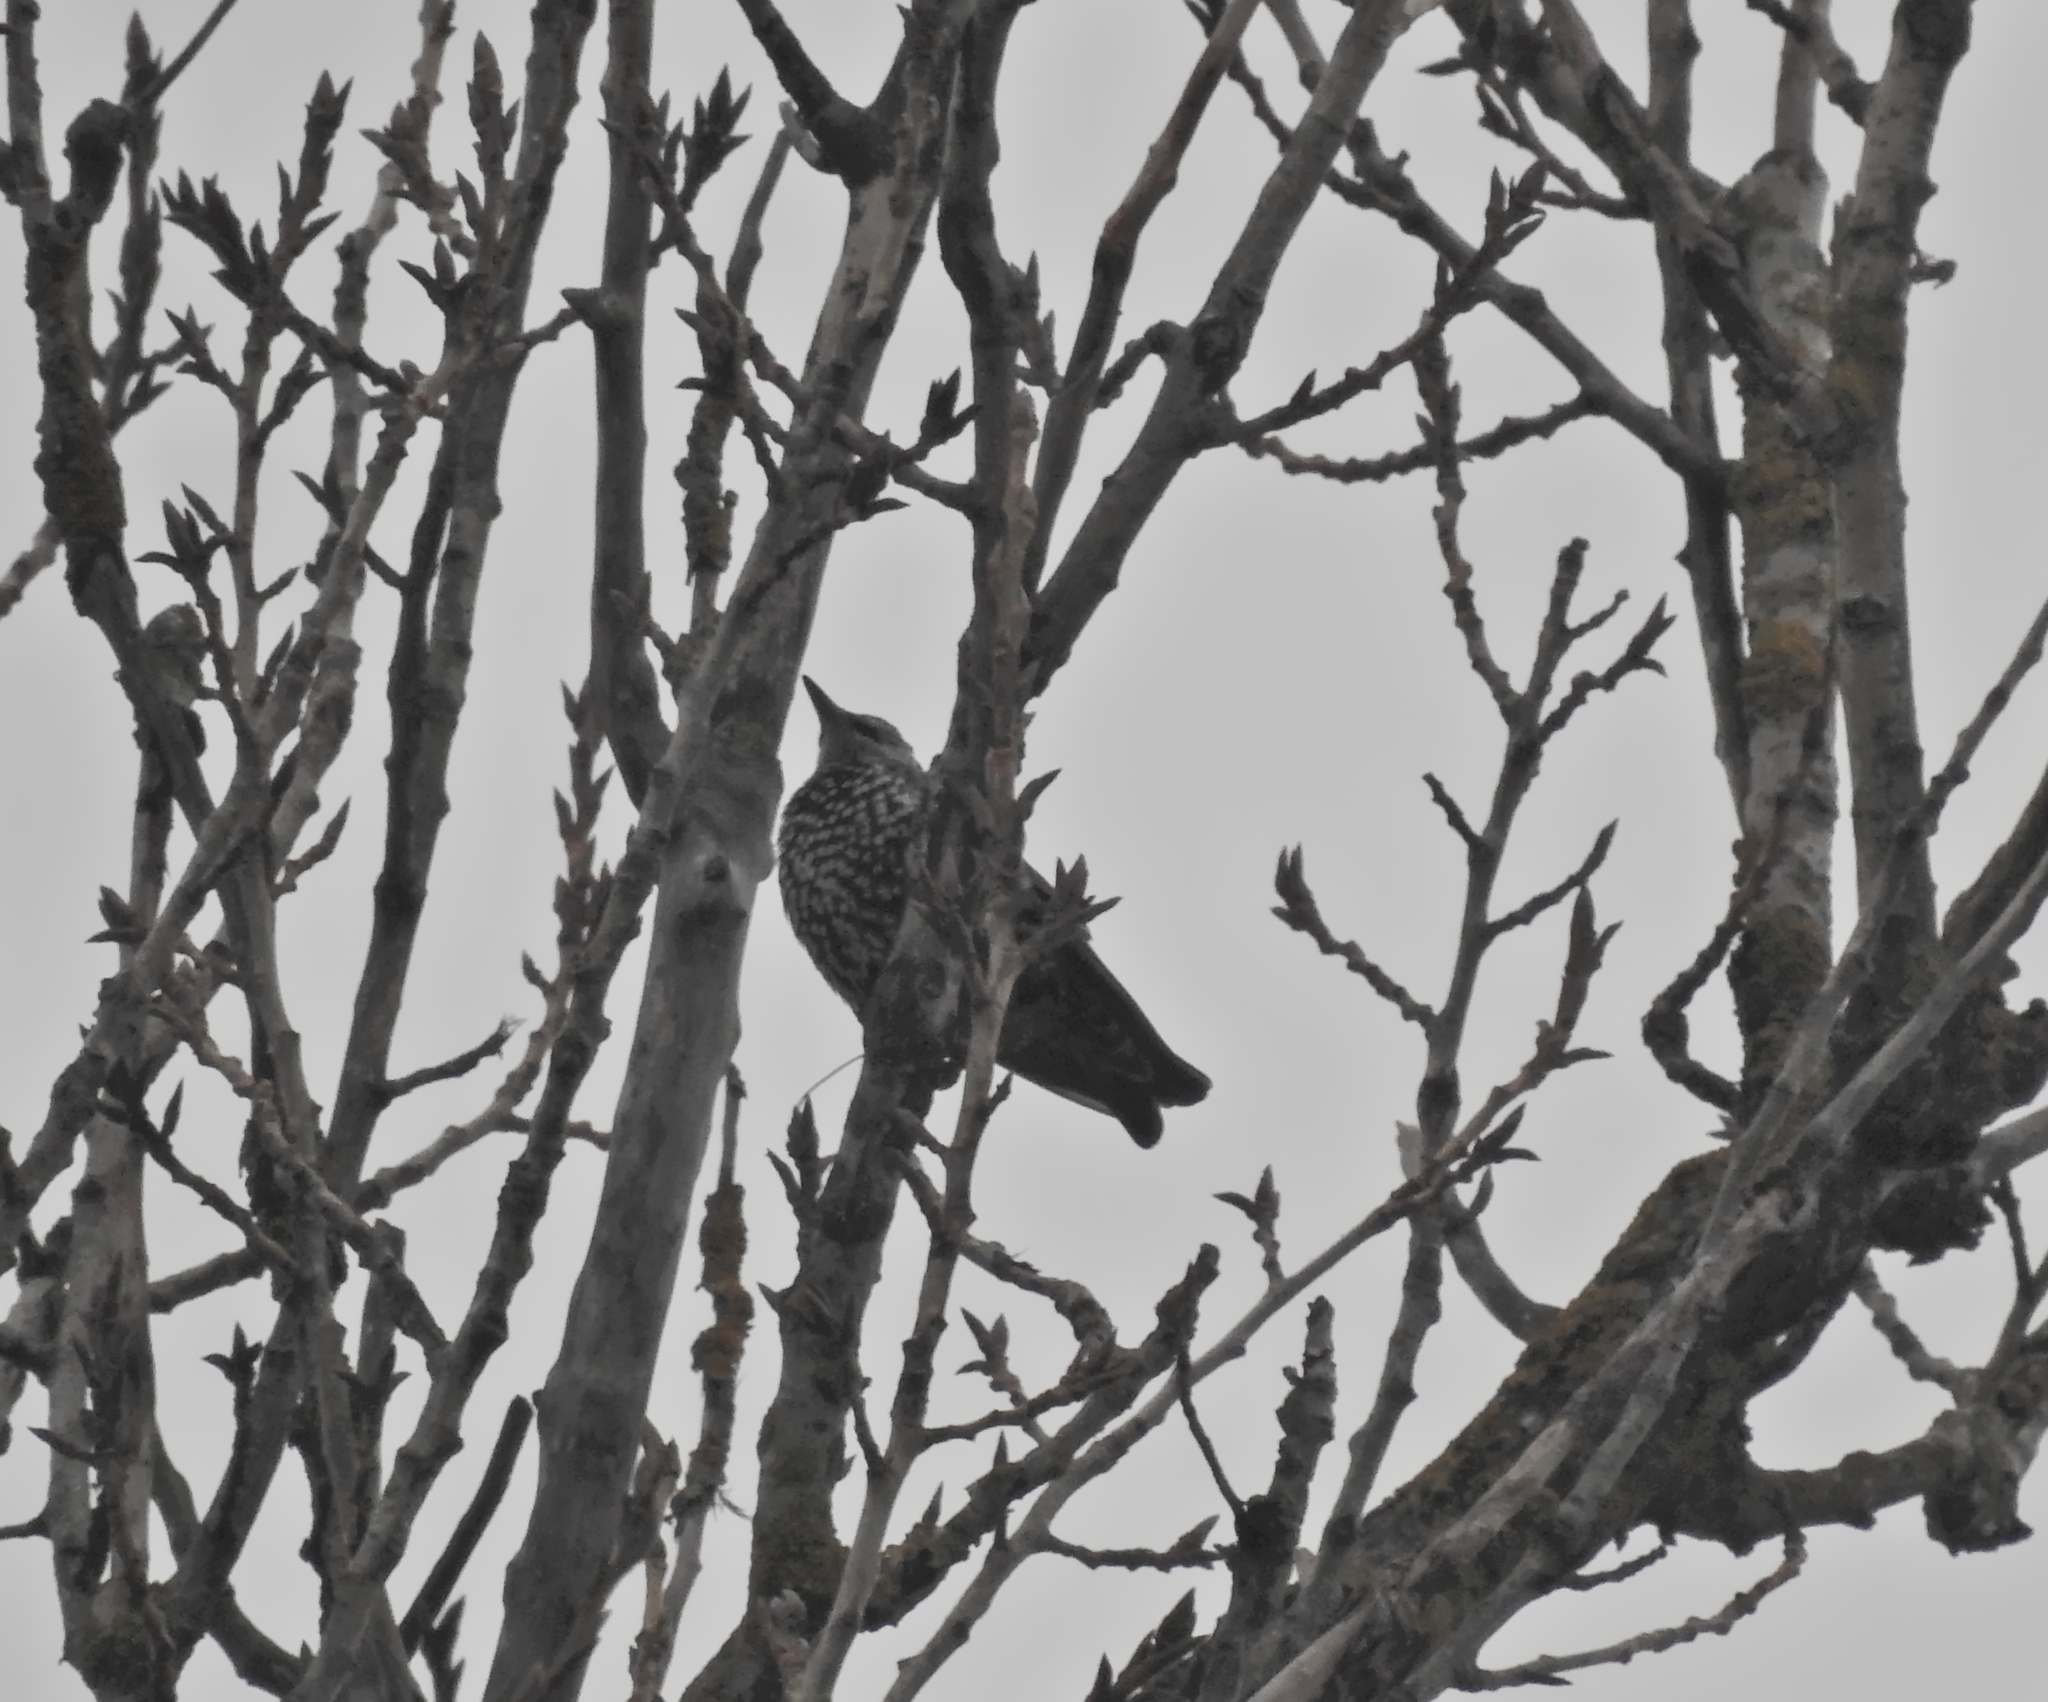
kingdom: Animalia
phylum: Chordata
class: Aves
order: Passeriformes
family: Sturnidae
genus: Sturnus
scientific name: Sturnus vulgaris
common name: Common starling
